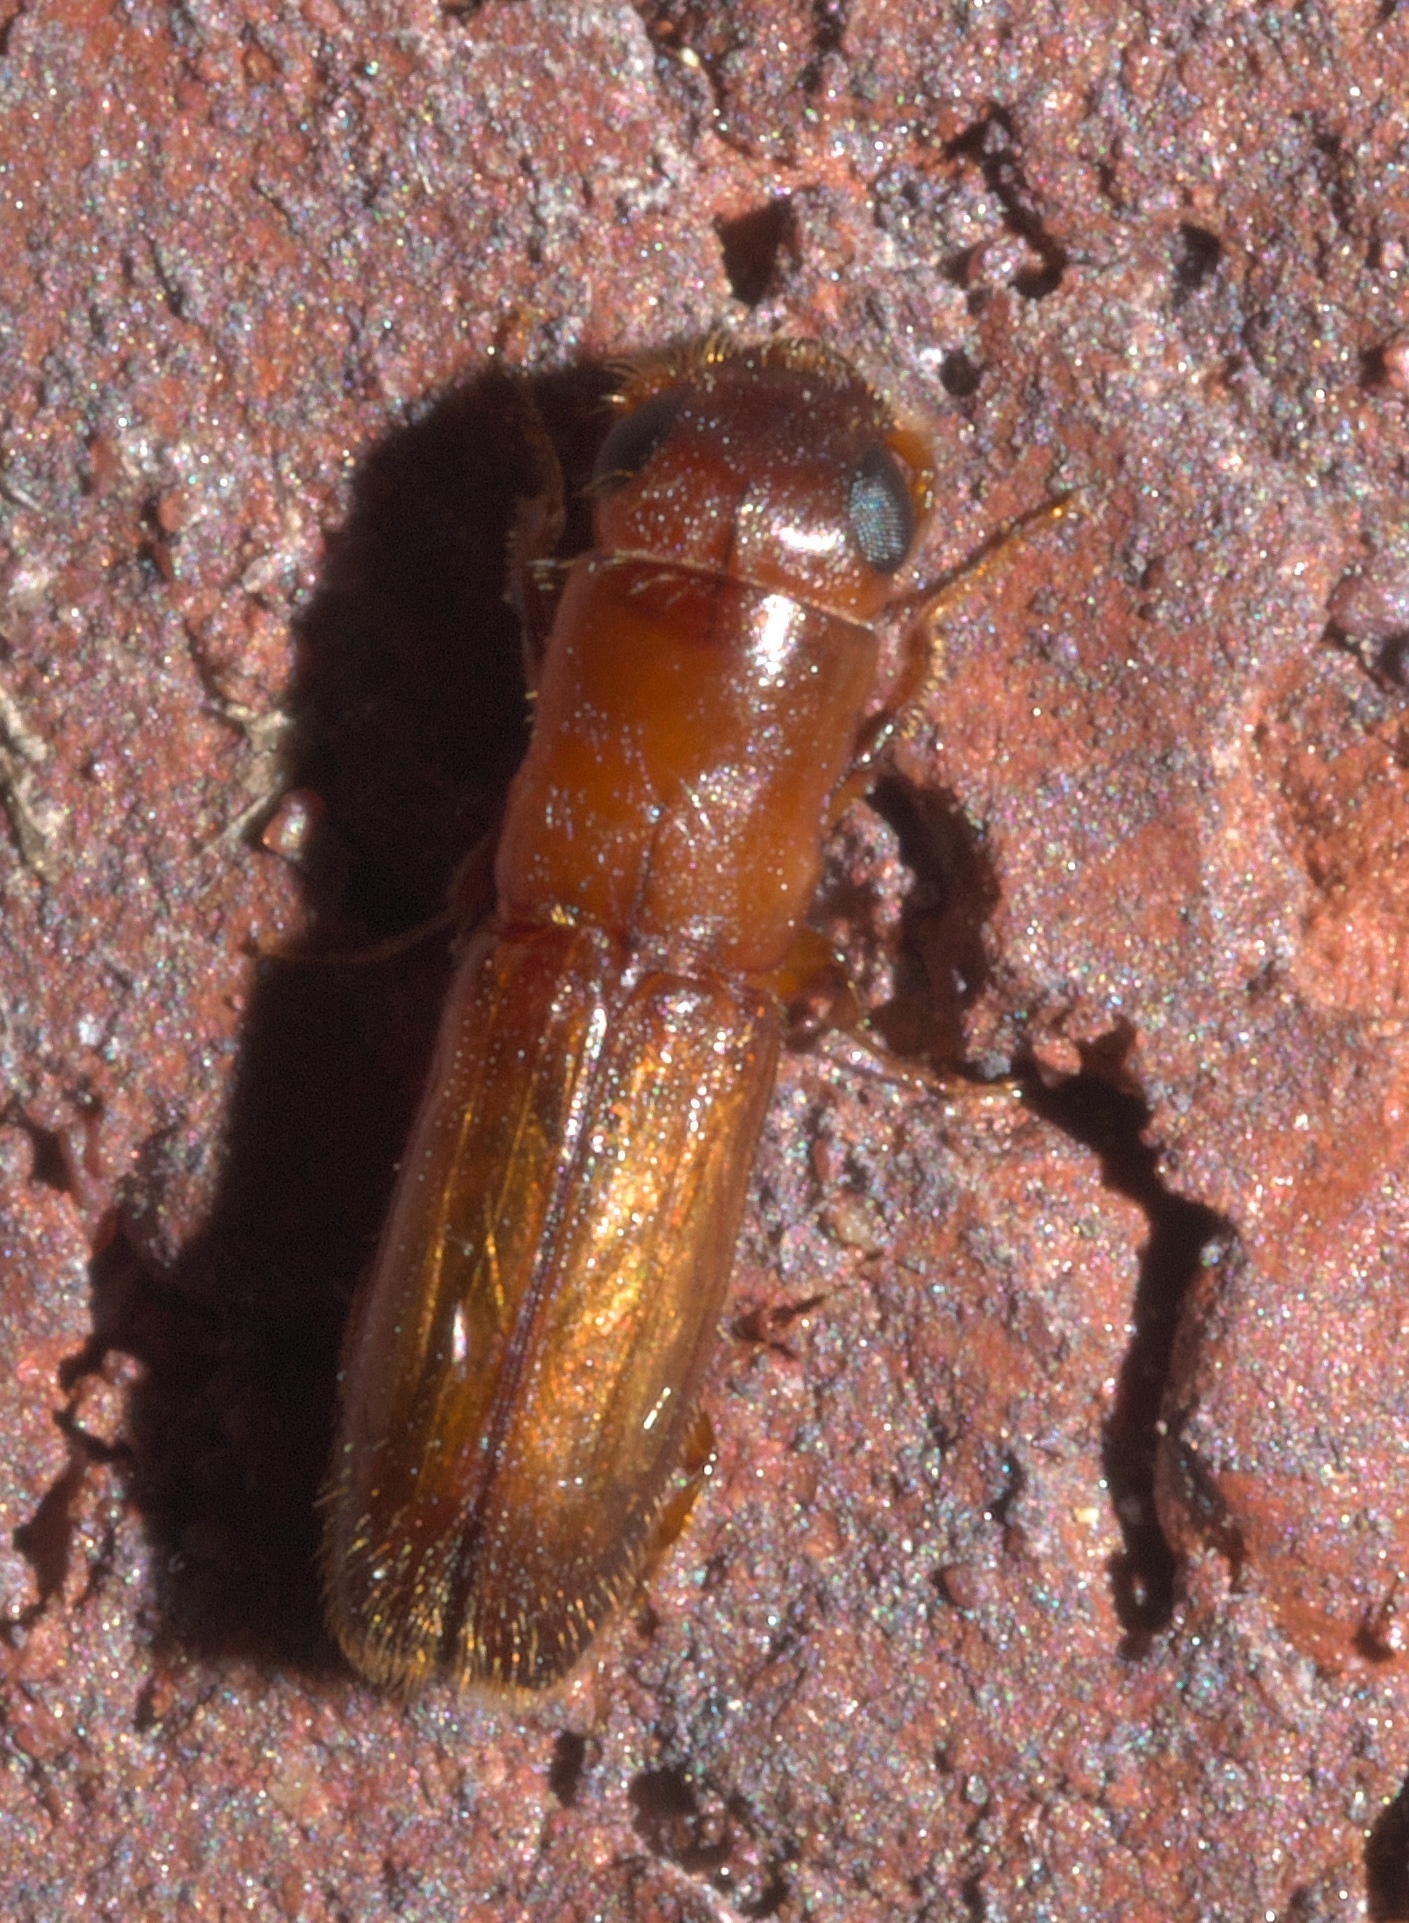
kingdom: Animalia
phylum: Arthropoda
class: Insecta
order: Coleoptera
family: Curculionidae
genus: Euplatypus
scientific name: Euplatypus compositus
